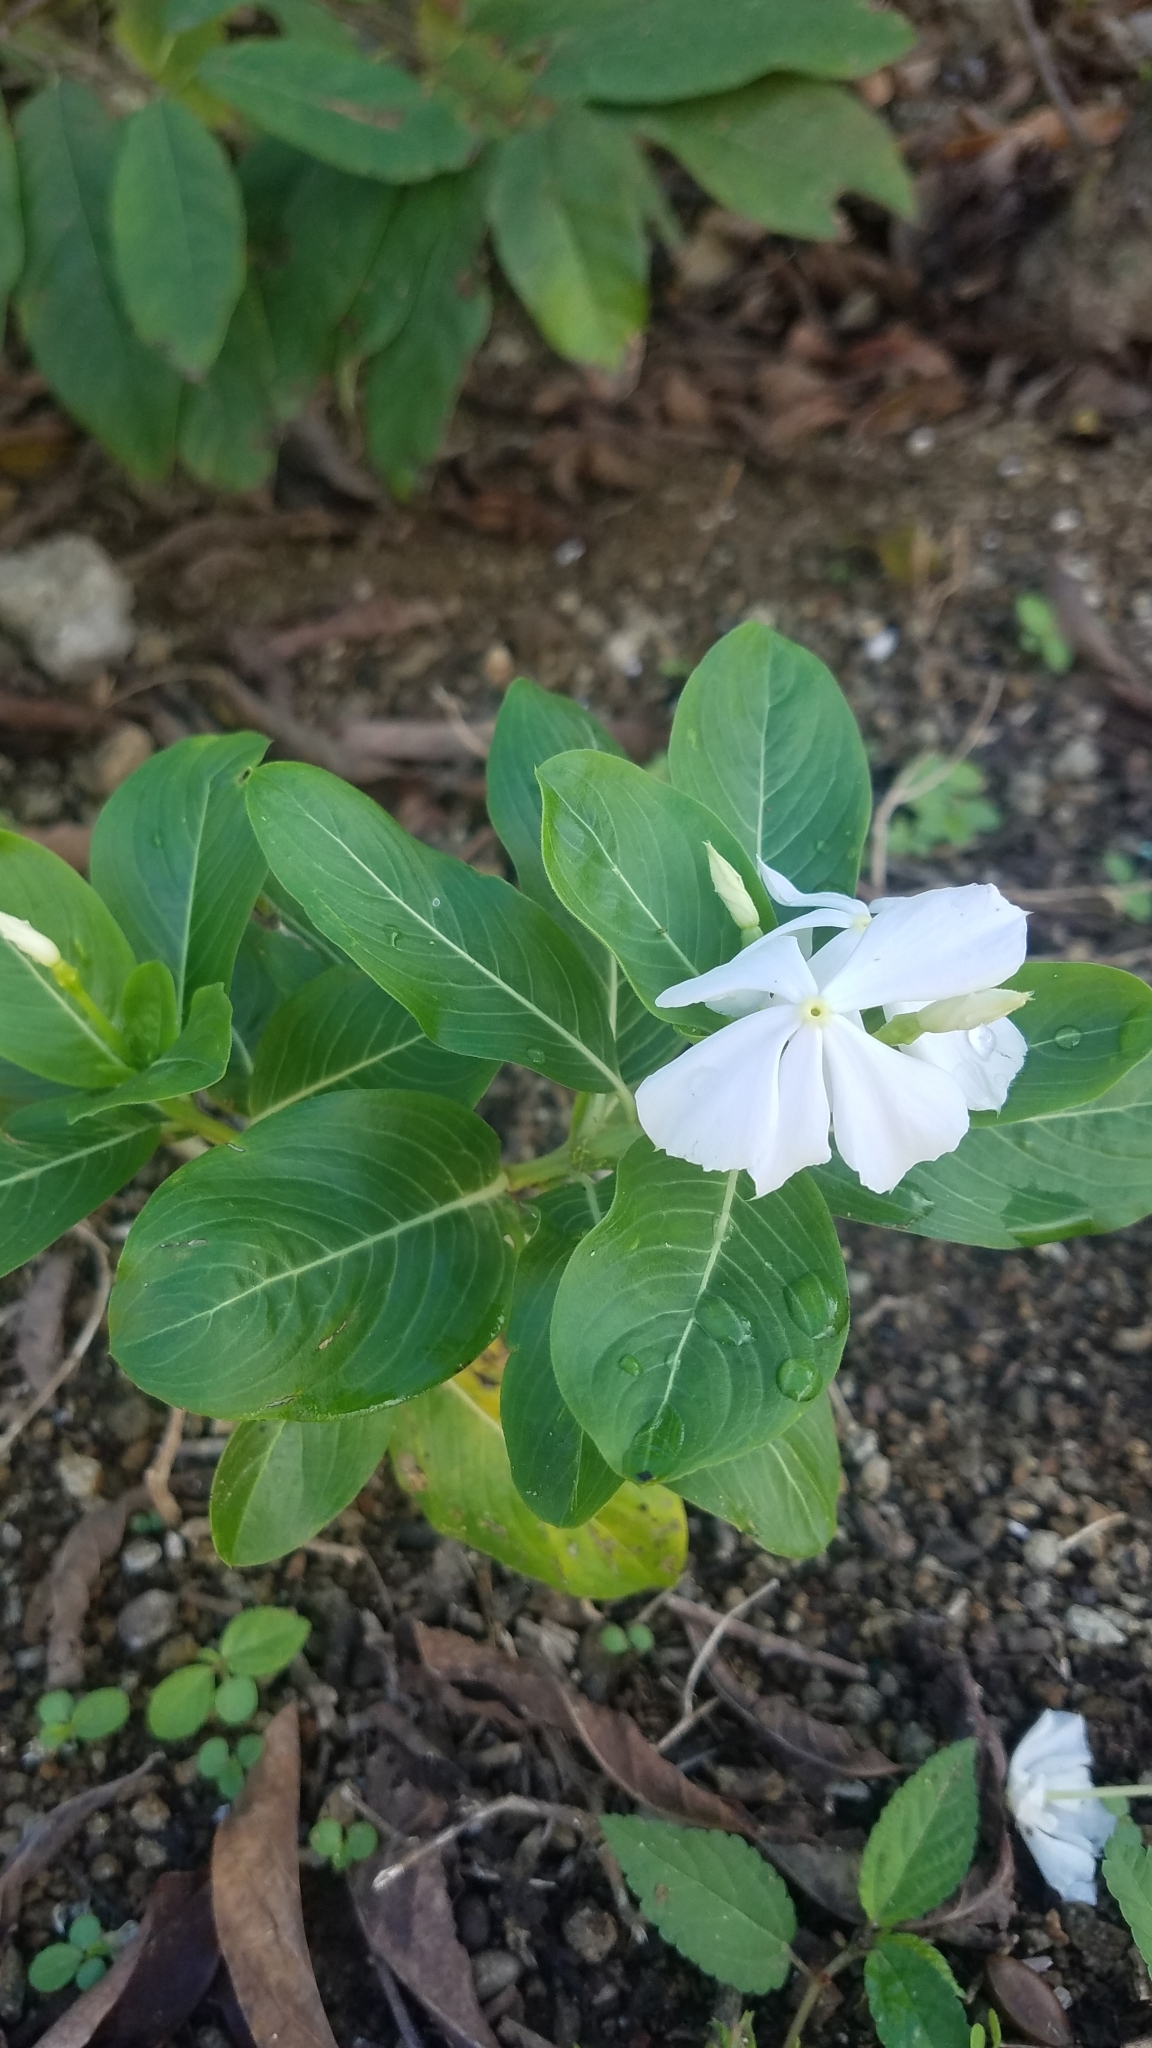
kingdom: Plantae
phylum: Tracheophyta
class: Magnoliopsida
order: Gentianales
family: Apocynaceae
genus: Catharanthus
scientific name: Catharanthus roseus
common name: Madagascar periwinkle
